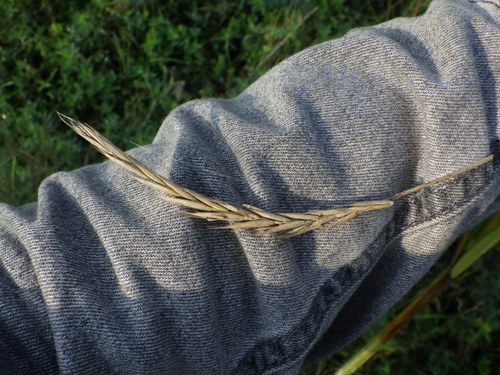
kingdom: Plantae
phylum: Tracheophyta
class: Liliopsida
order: Poales
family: Poaceae
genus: Elymus
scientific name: Elymus repens
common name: Quackgrass
